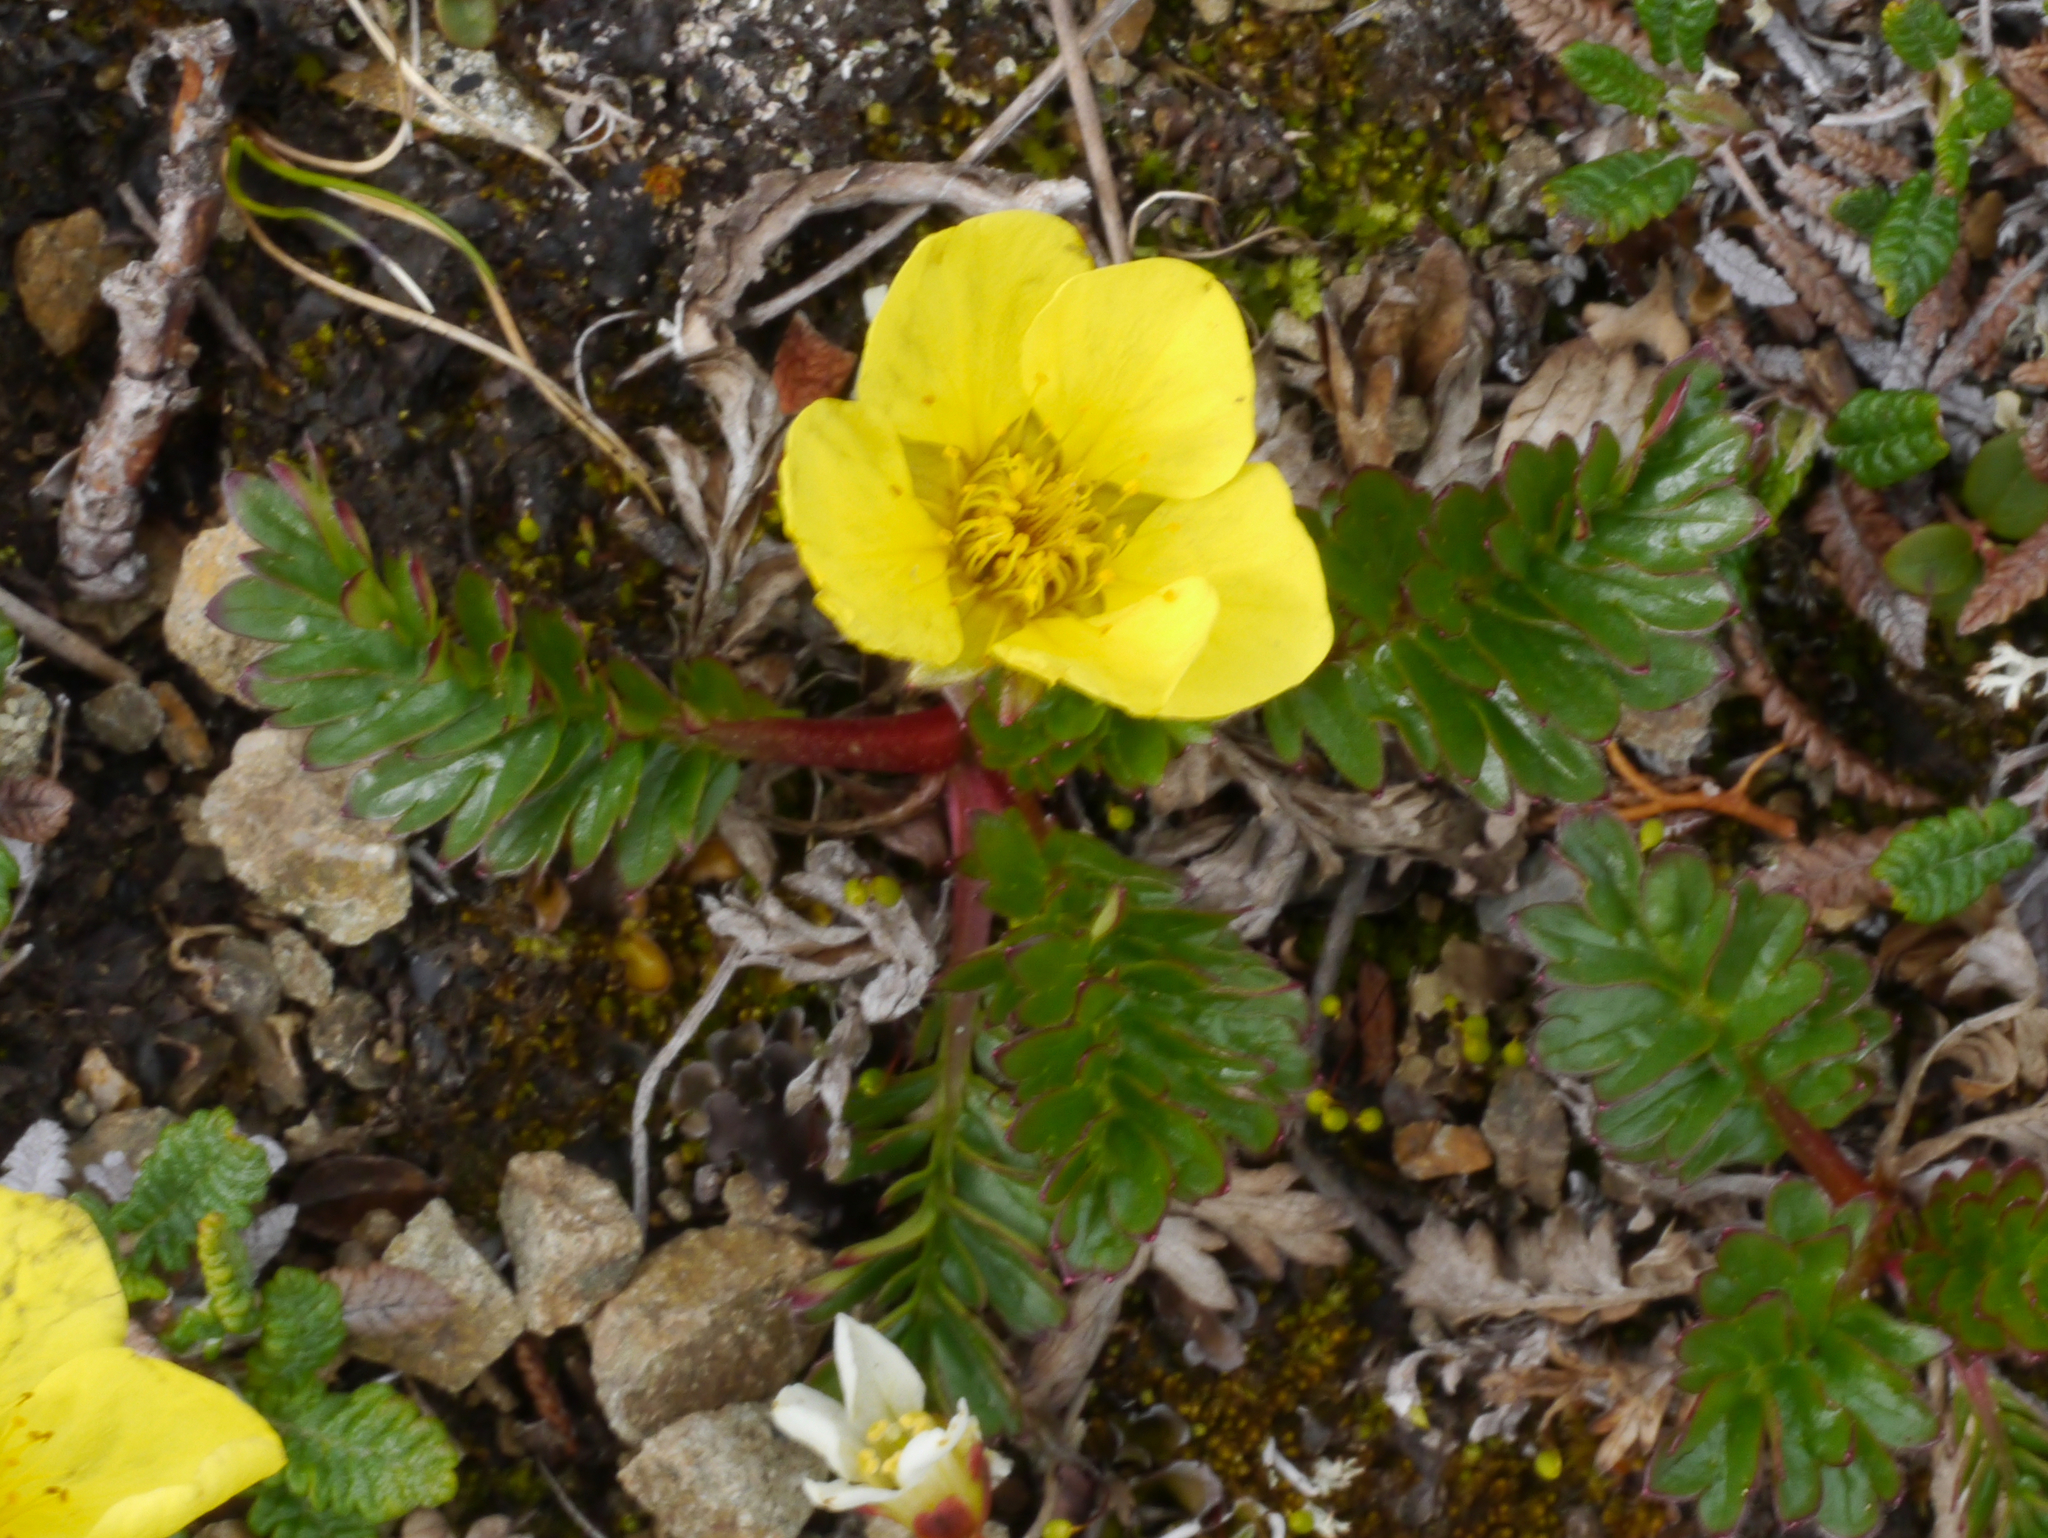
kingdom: Plantae
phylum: Tracheophyta
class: Magnoliopsida
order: Rosales
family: Rosaceae
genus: Geum
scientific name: Geum rossii
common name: Alpine avens
